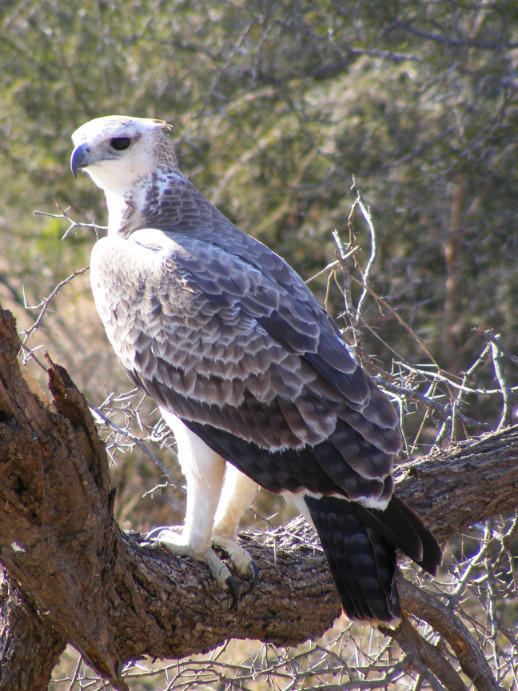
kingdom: Animalia
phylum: Chordata
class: Aves
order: Accipitriformes
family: Accipitridae
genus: Polemaetus
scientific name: Polemaetus bellicosus
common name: Martial eagle
